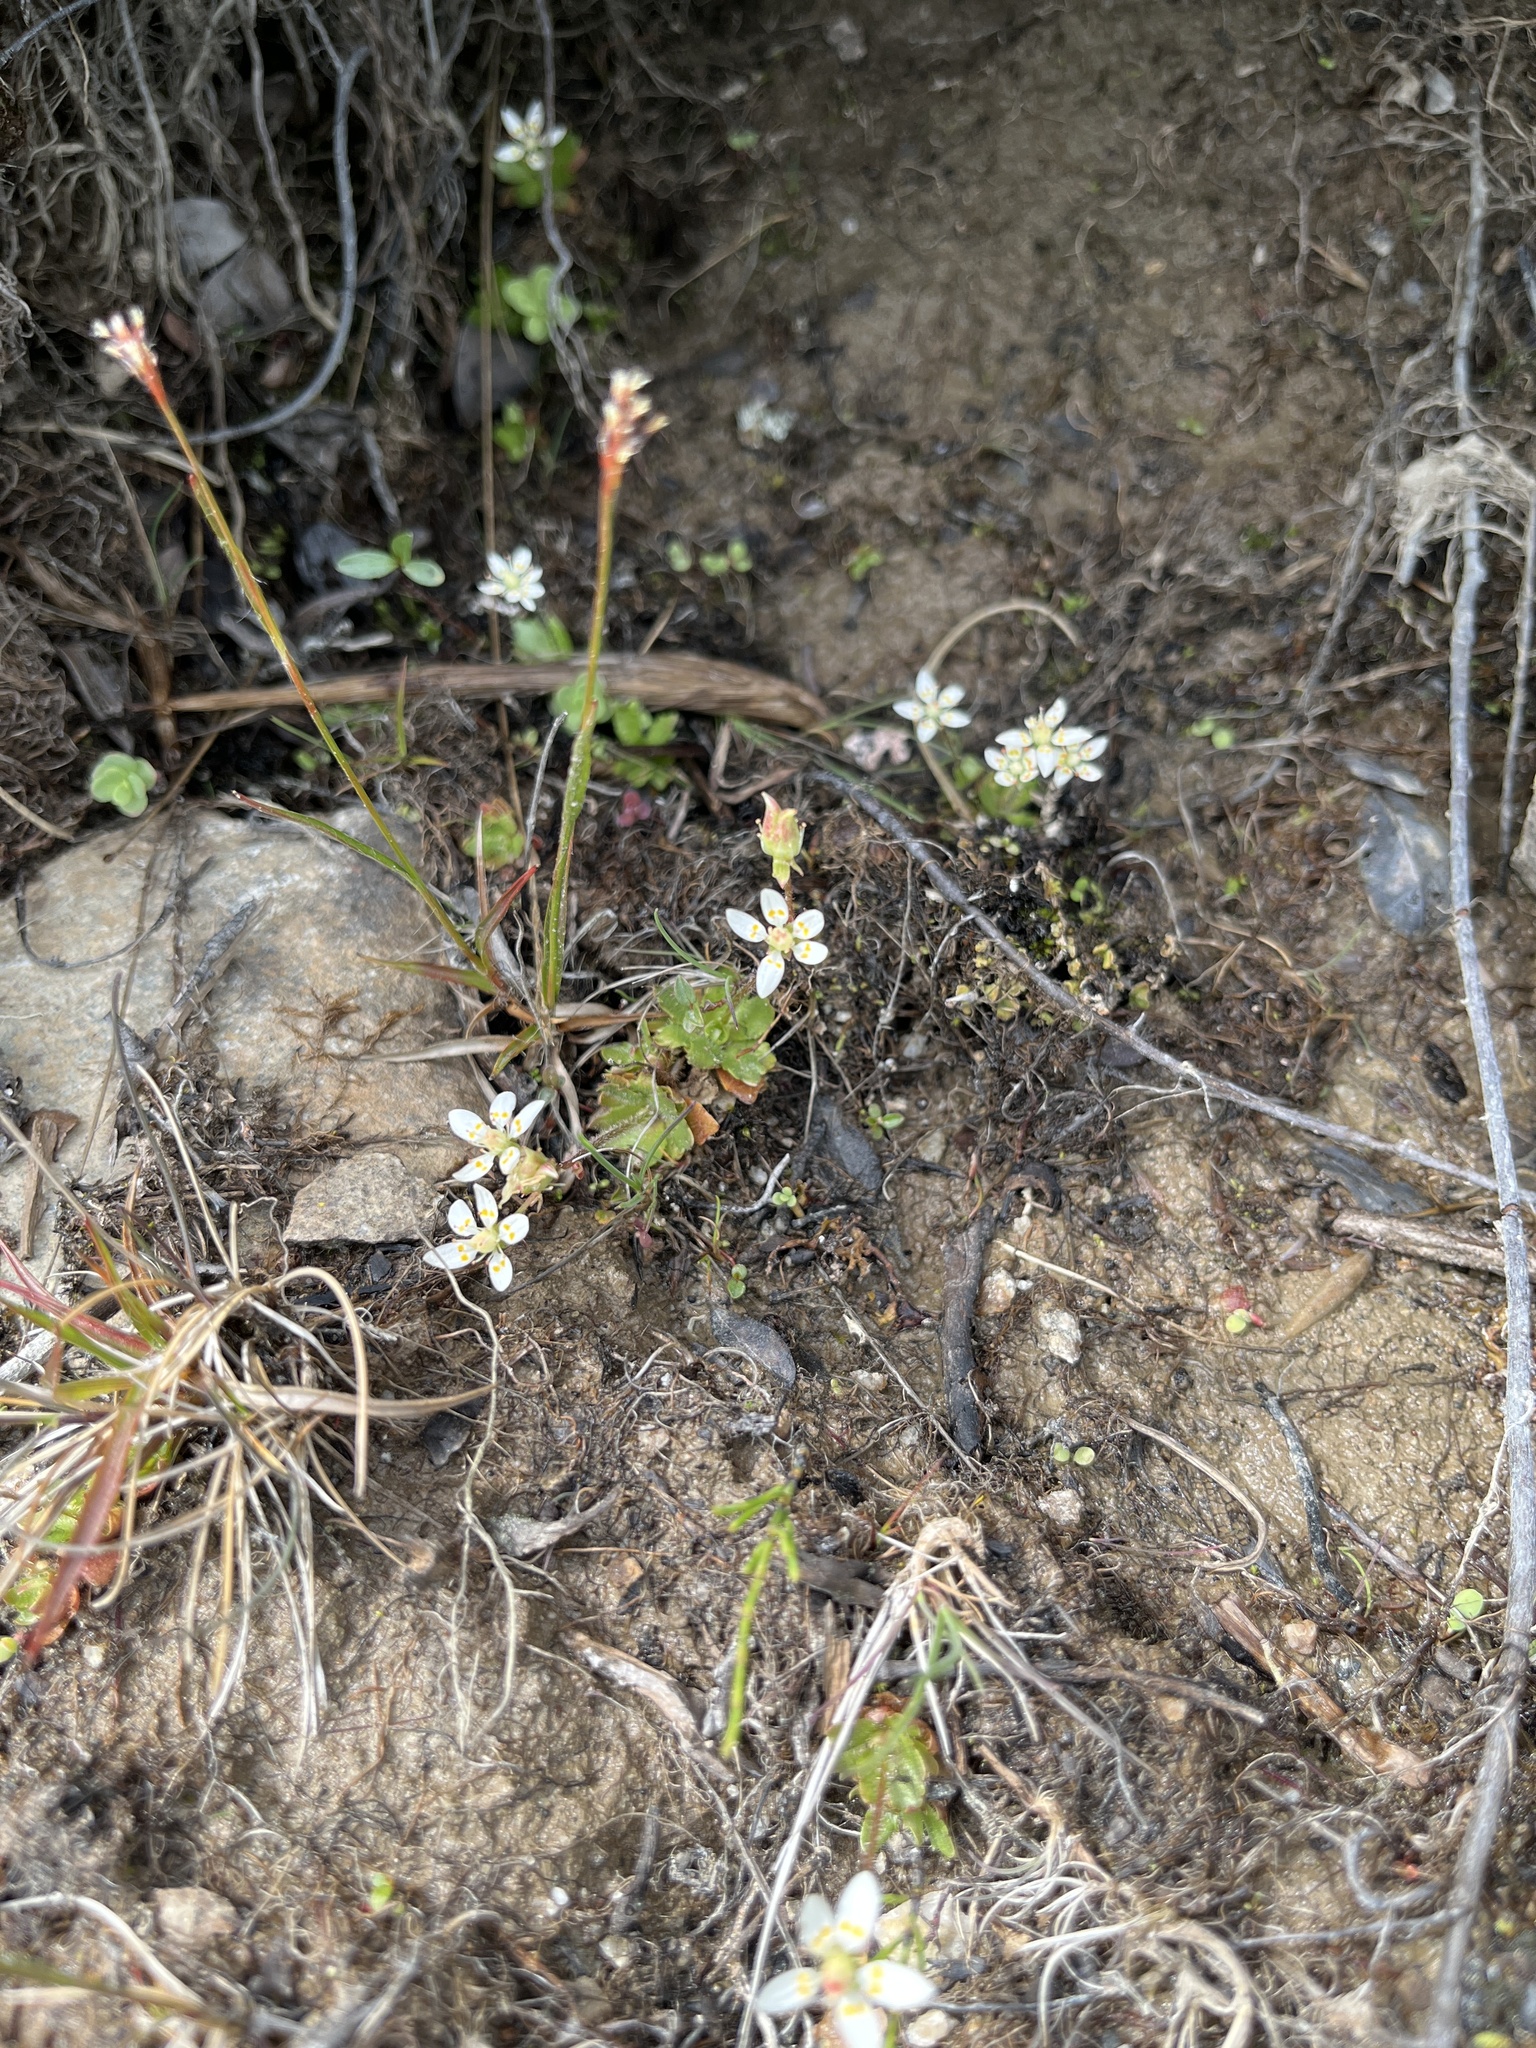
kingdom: Plantae
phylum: Tracheophyta
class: Magnoliopsida
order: Saxifragales
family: Saxifragaceae
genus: Micranthes
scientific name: Micranthes stellaris
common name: Starry saxifrage
